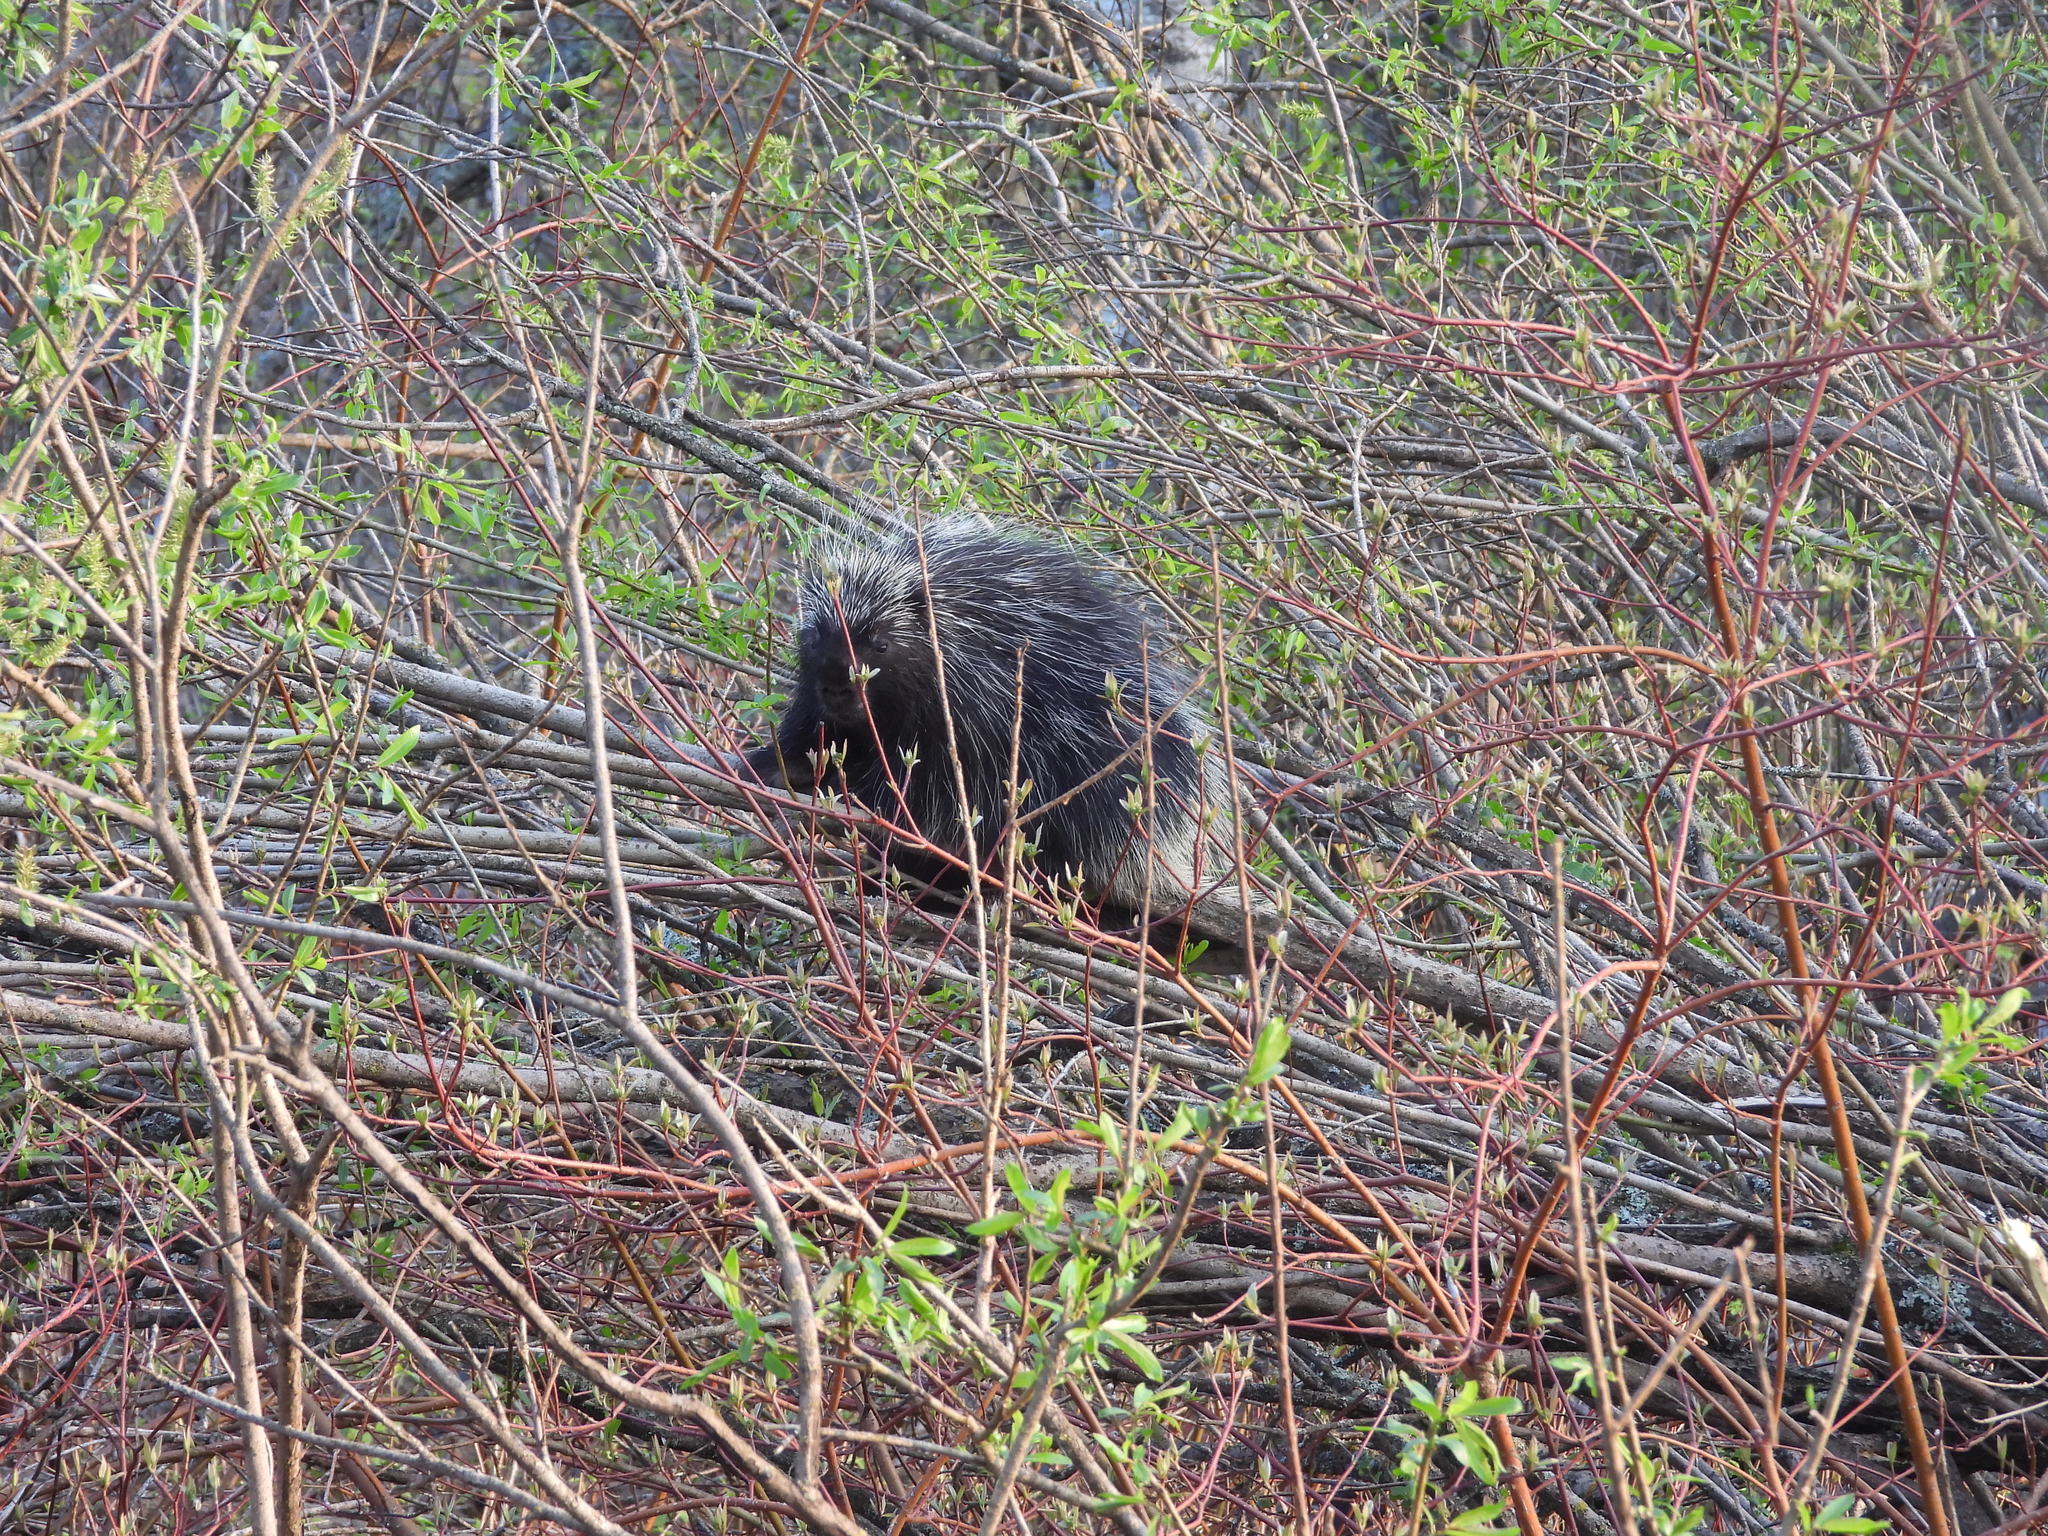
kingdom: Animalia
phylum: Chordata
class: Mammalia
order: Rodentia
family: Erethizontidae
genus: Erethizon
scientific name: Erethizon dorsatus
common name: North american porcupine
